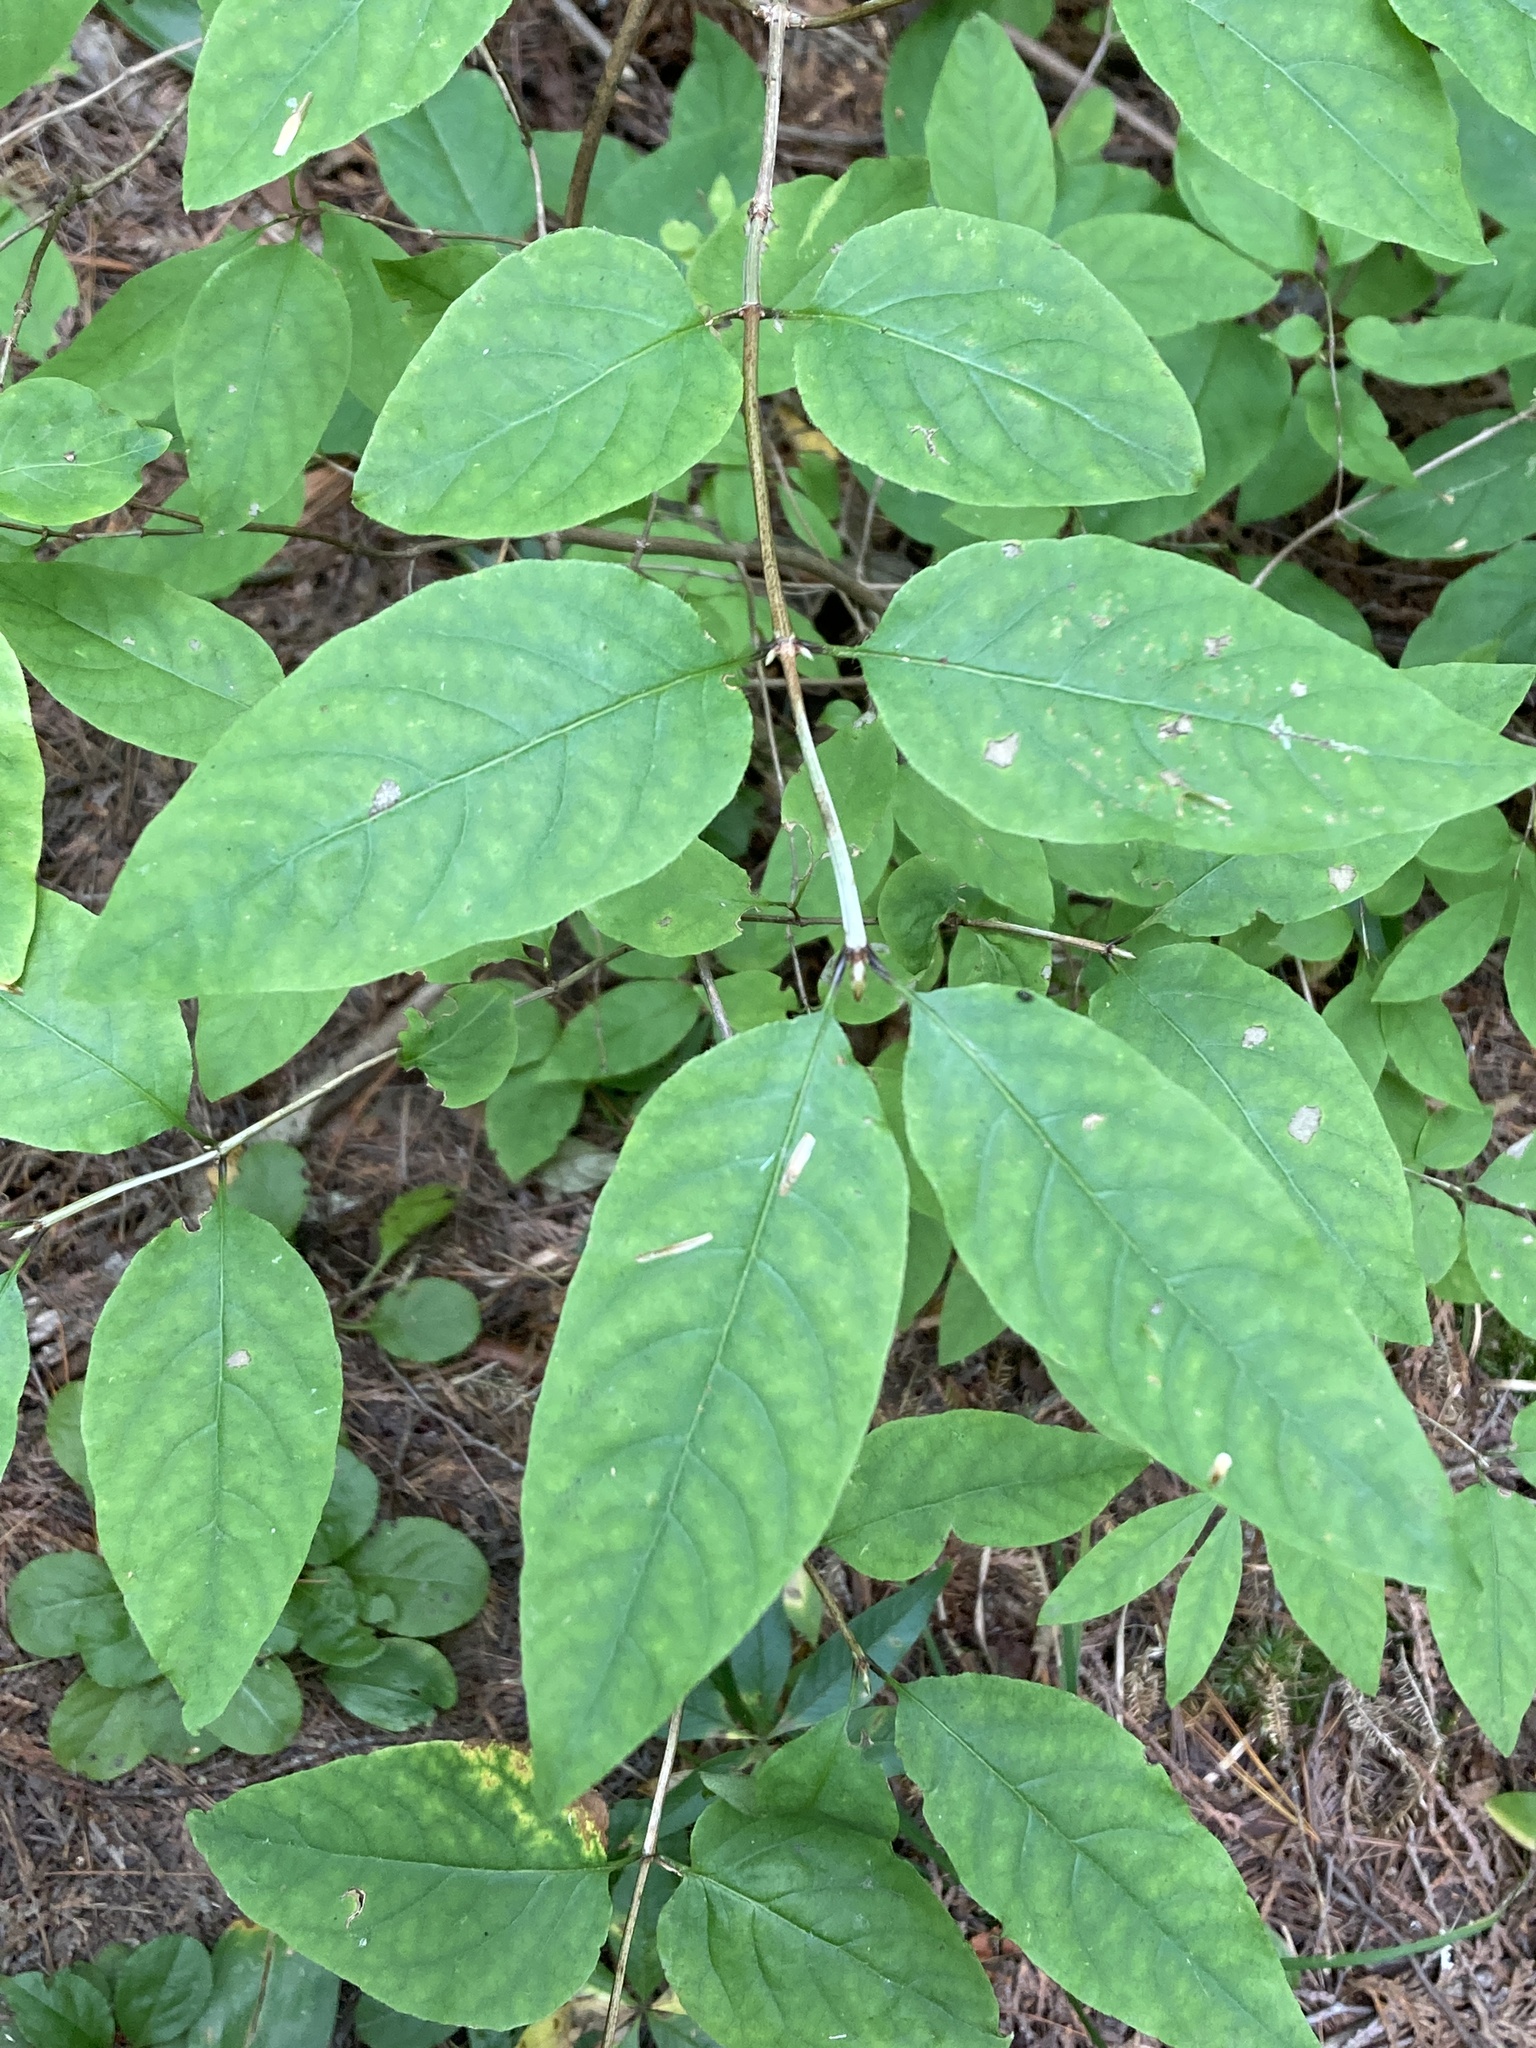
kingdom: Plantae
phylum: Tracheophyta
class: Magnoliopsida
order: Dipsacales
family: Caprifoliaceae
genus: Lonicera
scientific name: Lonicera canadensis
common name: American fly-honeysuckle
